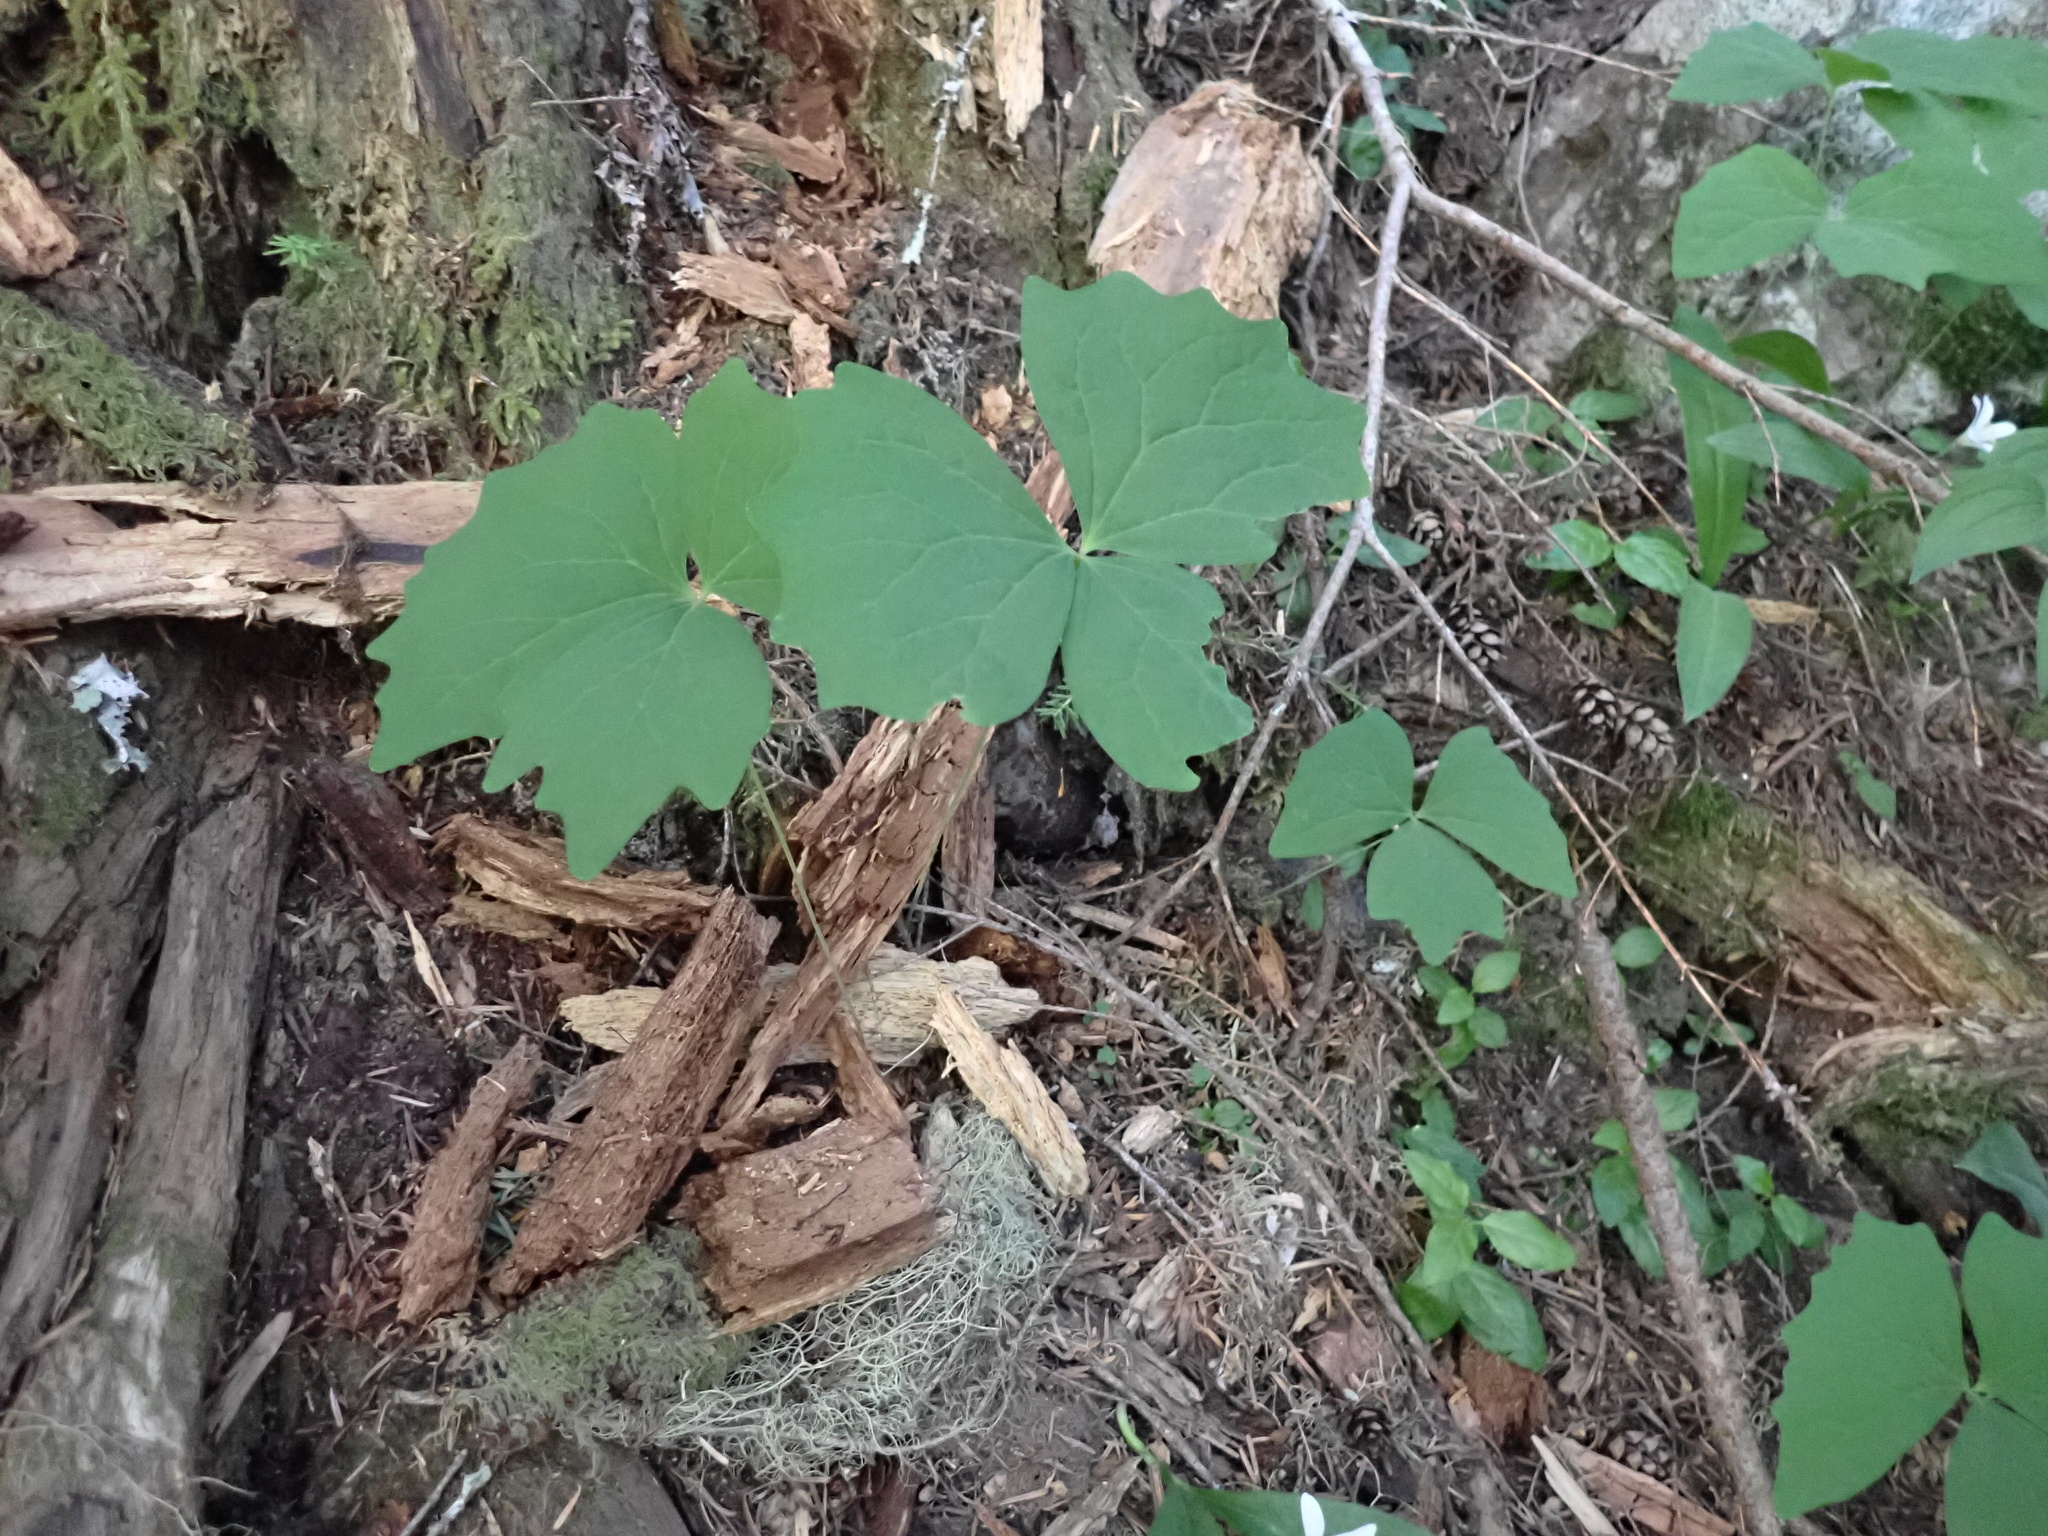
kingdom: Plantae
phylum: Tracheophyta
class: Magnoliopsida
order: Ranunculales
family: Berberidaceae
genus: Achlys
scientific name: Achlys triphylla
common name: Vanilla-leaf
